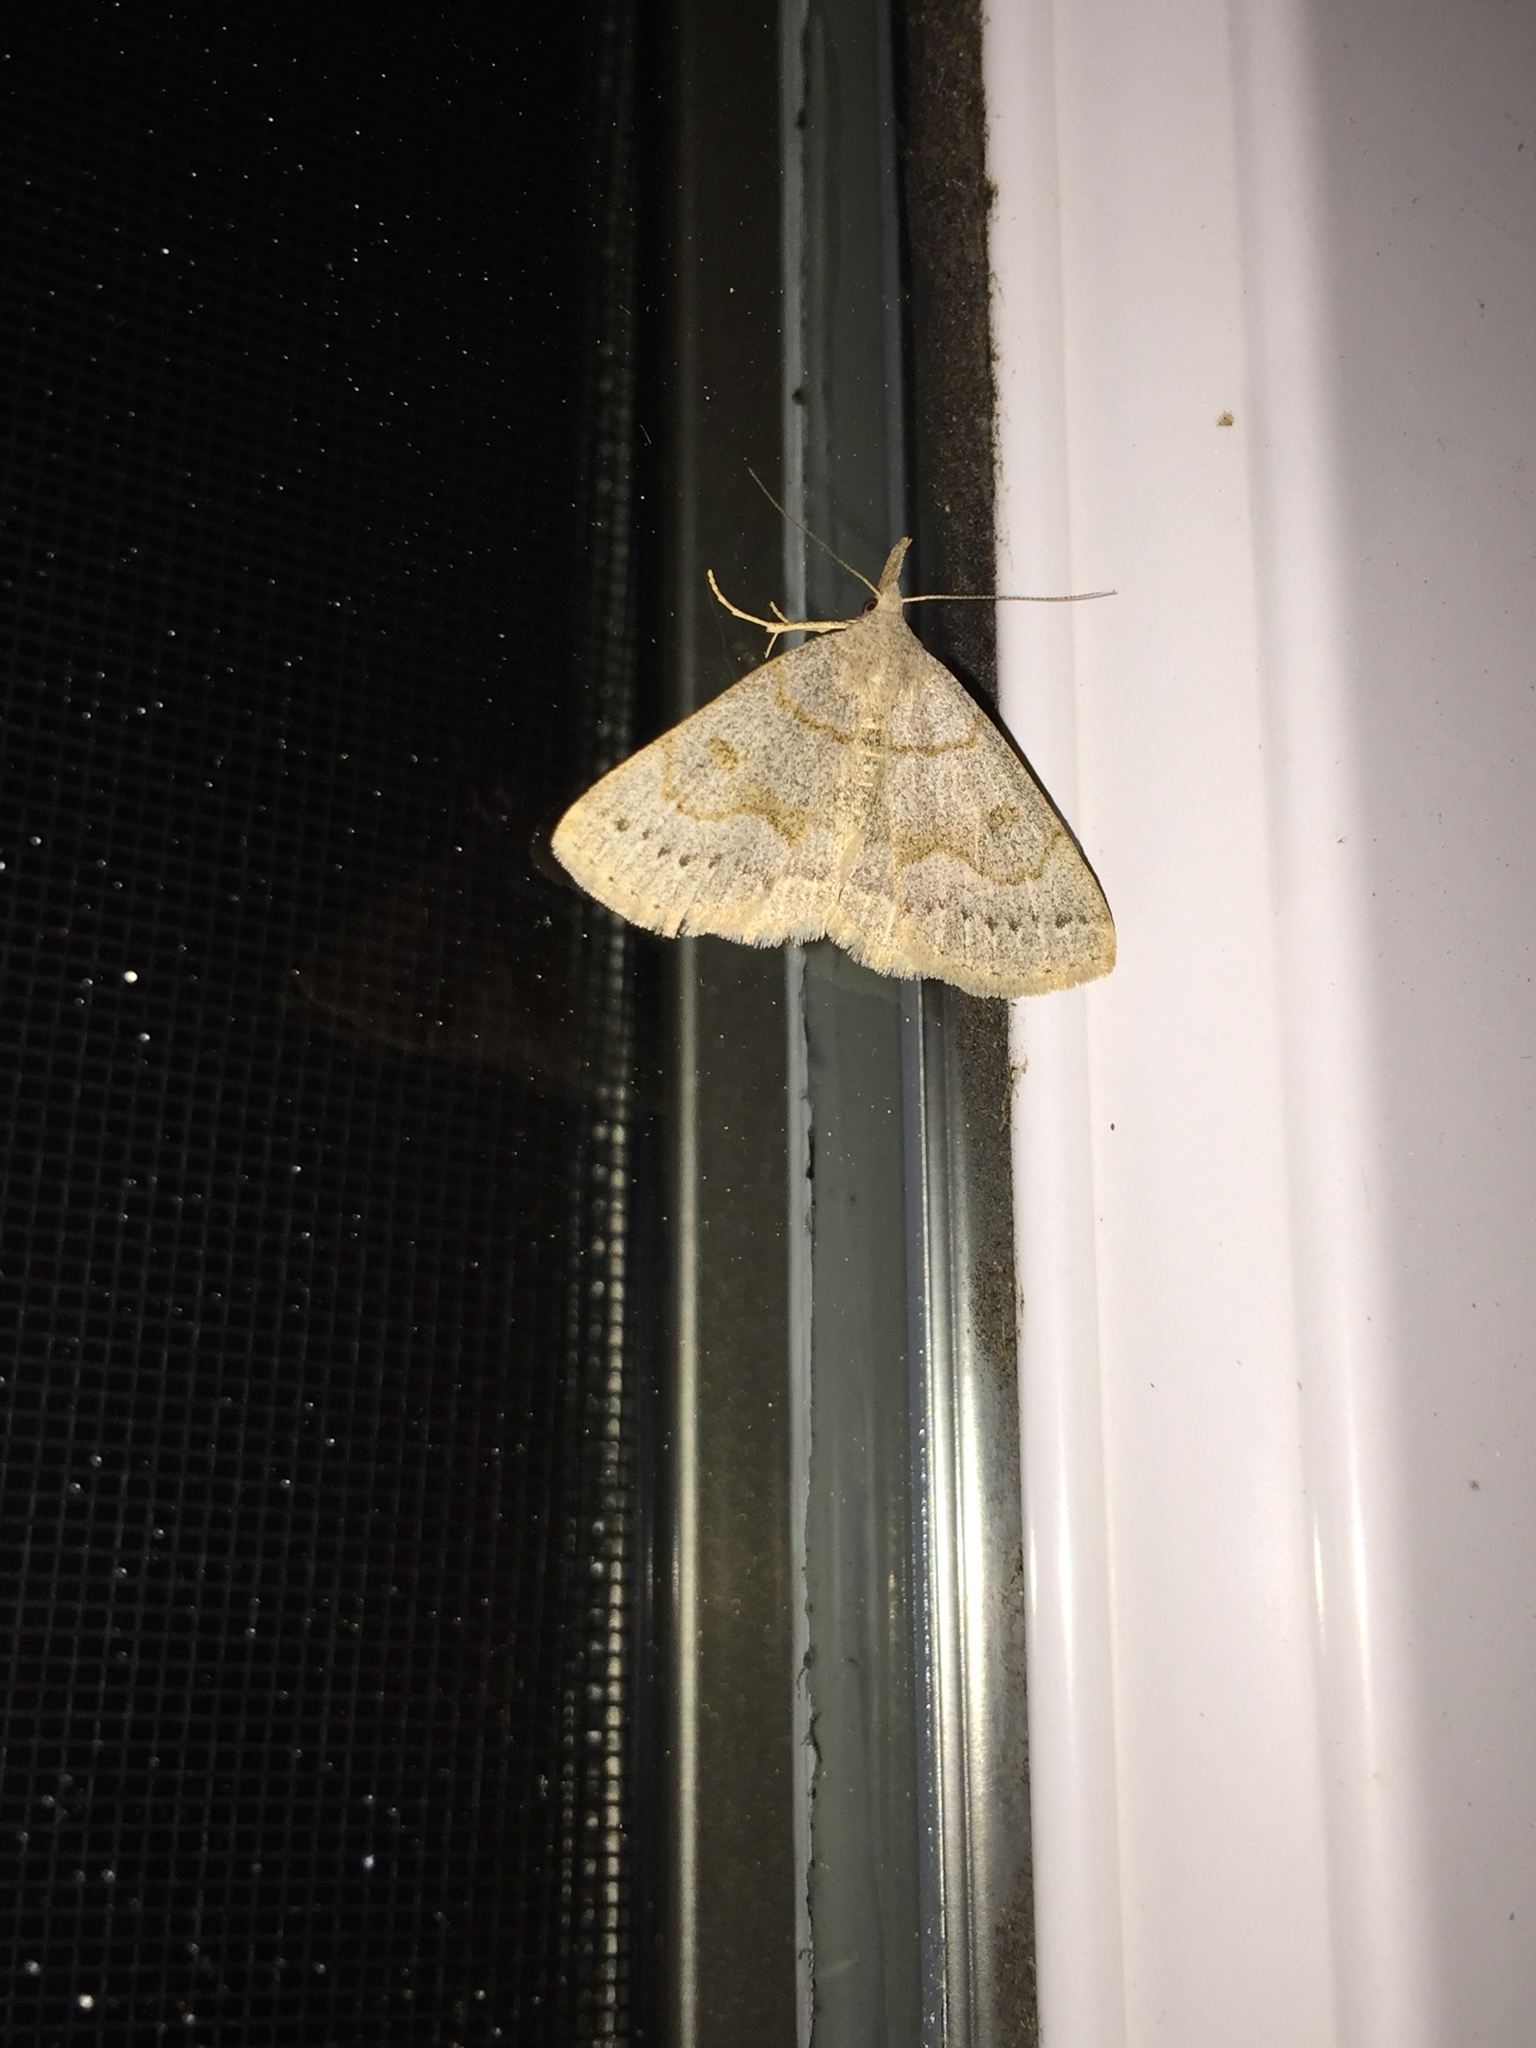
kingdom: Animalia
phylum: Arthropoda
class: Insecta
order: Lepidoptera
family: Erebidae
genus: Macrochilo
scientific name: Macrochilo morbidalis
